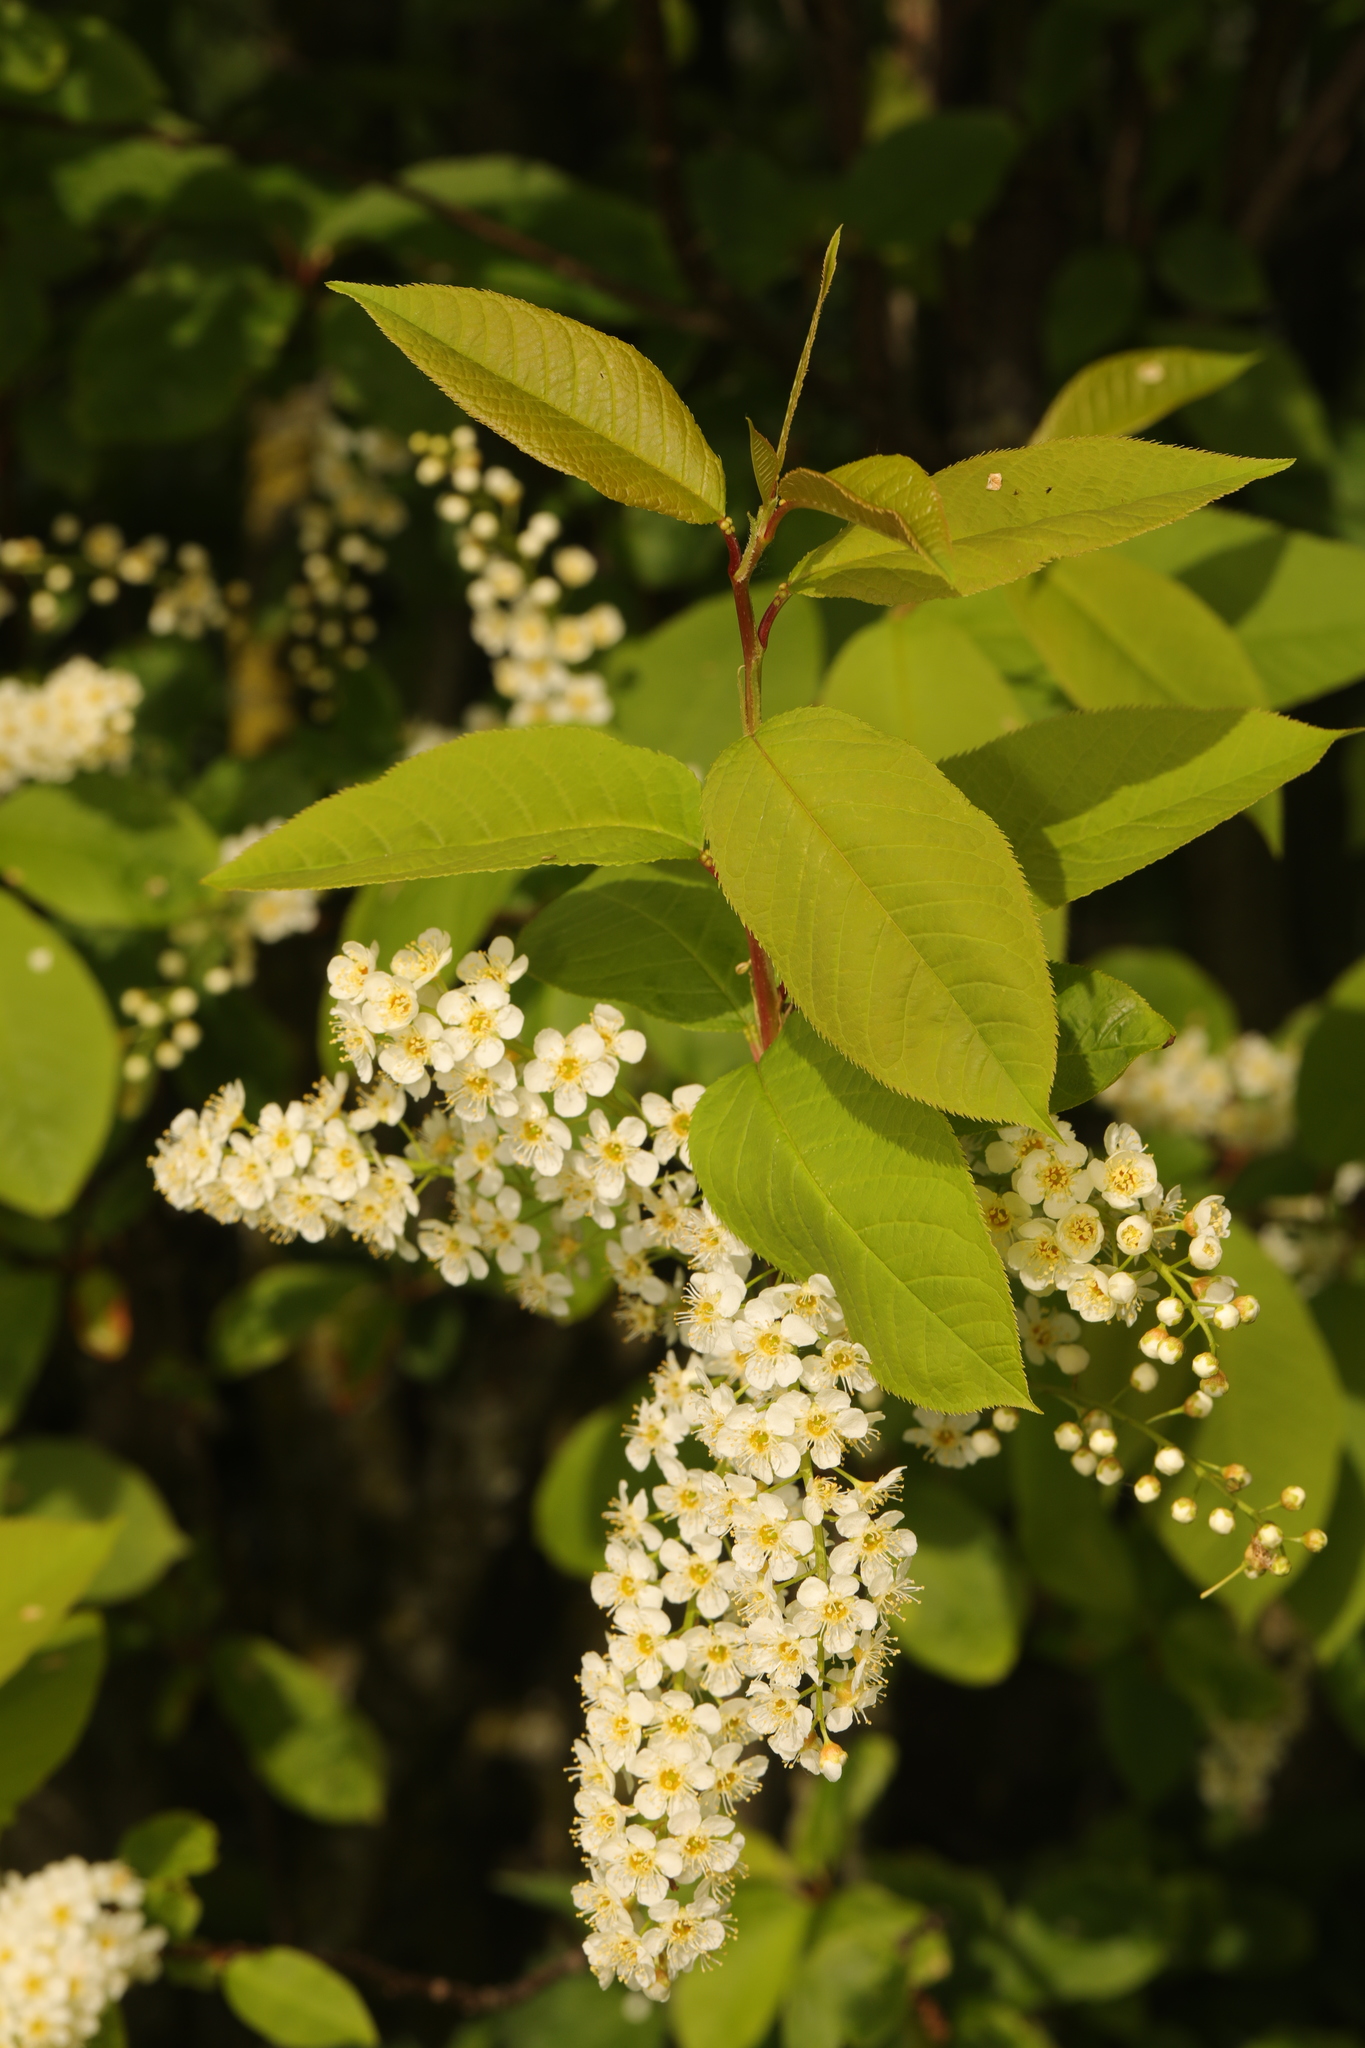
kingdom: Plantae
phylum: Tracheophyta
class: Magnoliopsida
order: Rosales
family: Rosaceae
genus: Prunus
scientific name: Prunus padus
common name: Bird cherry
